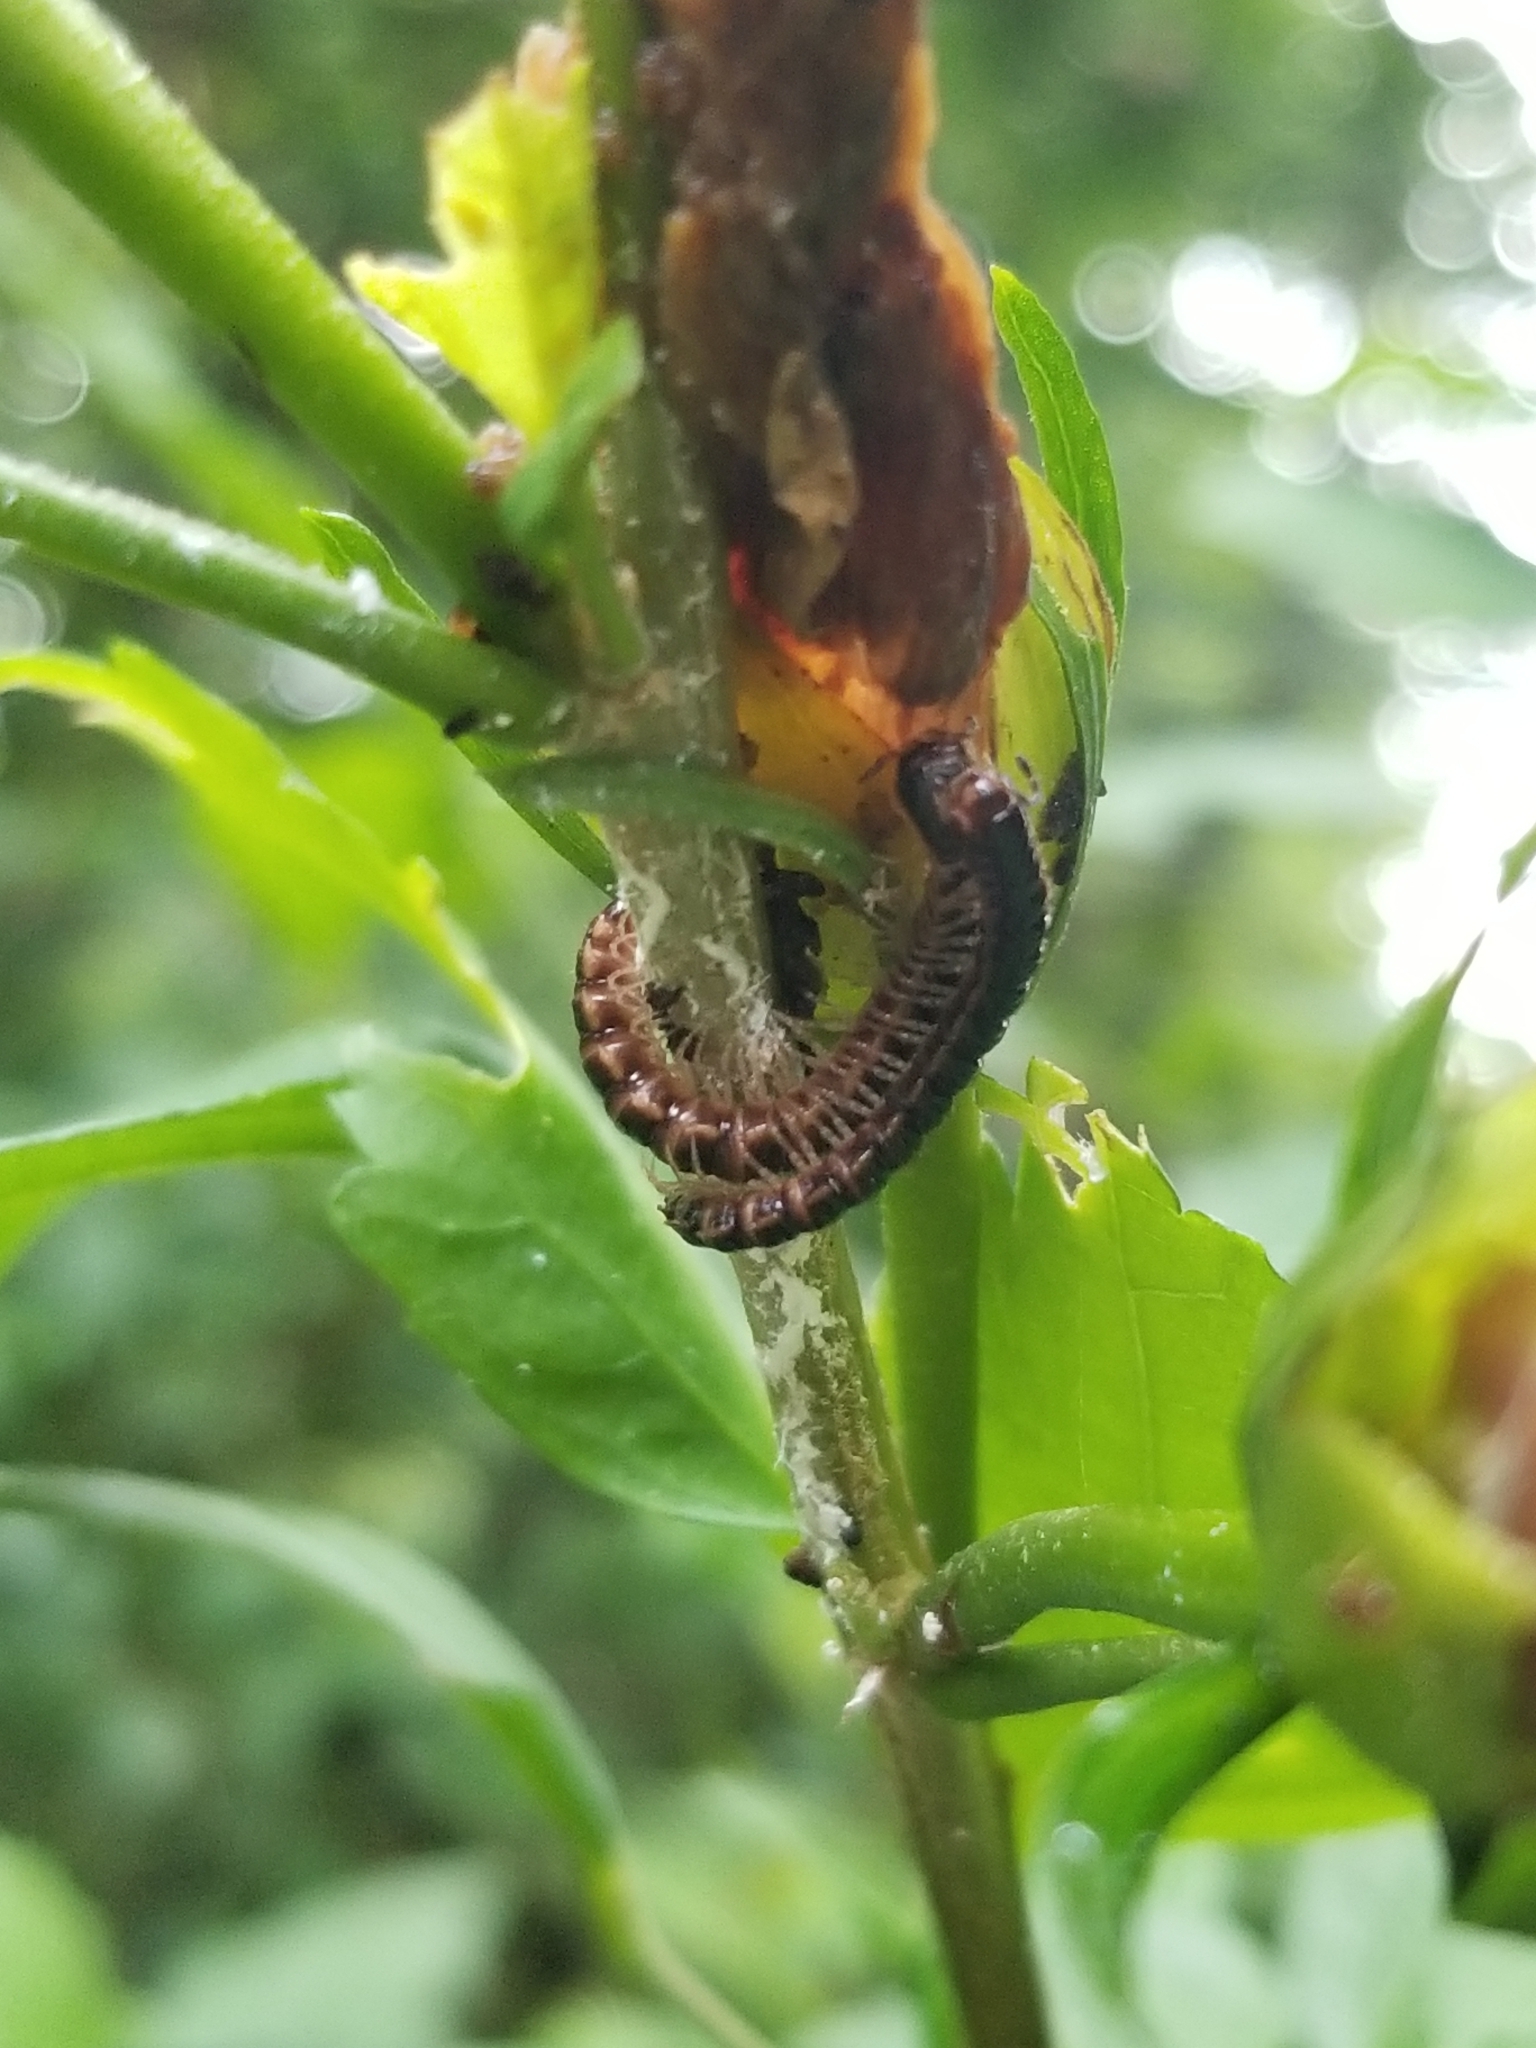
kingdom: Animalia
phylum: Arthropoda
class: Diplopoda
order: Polydesmida
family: Paradoxosomatidae
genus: Oxidus
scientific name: Oxidus gracilis
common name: Greenhouse millipede
